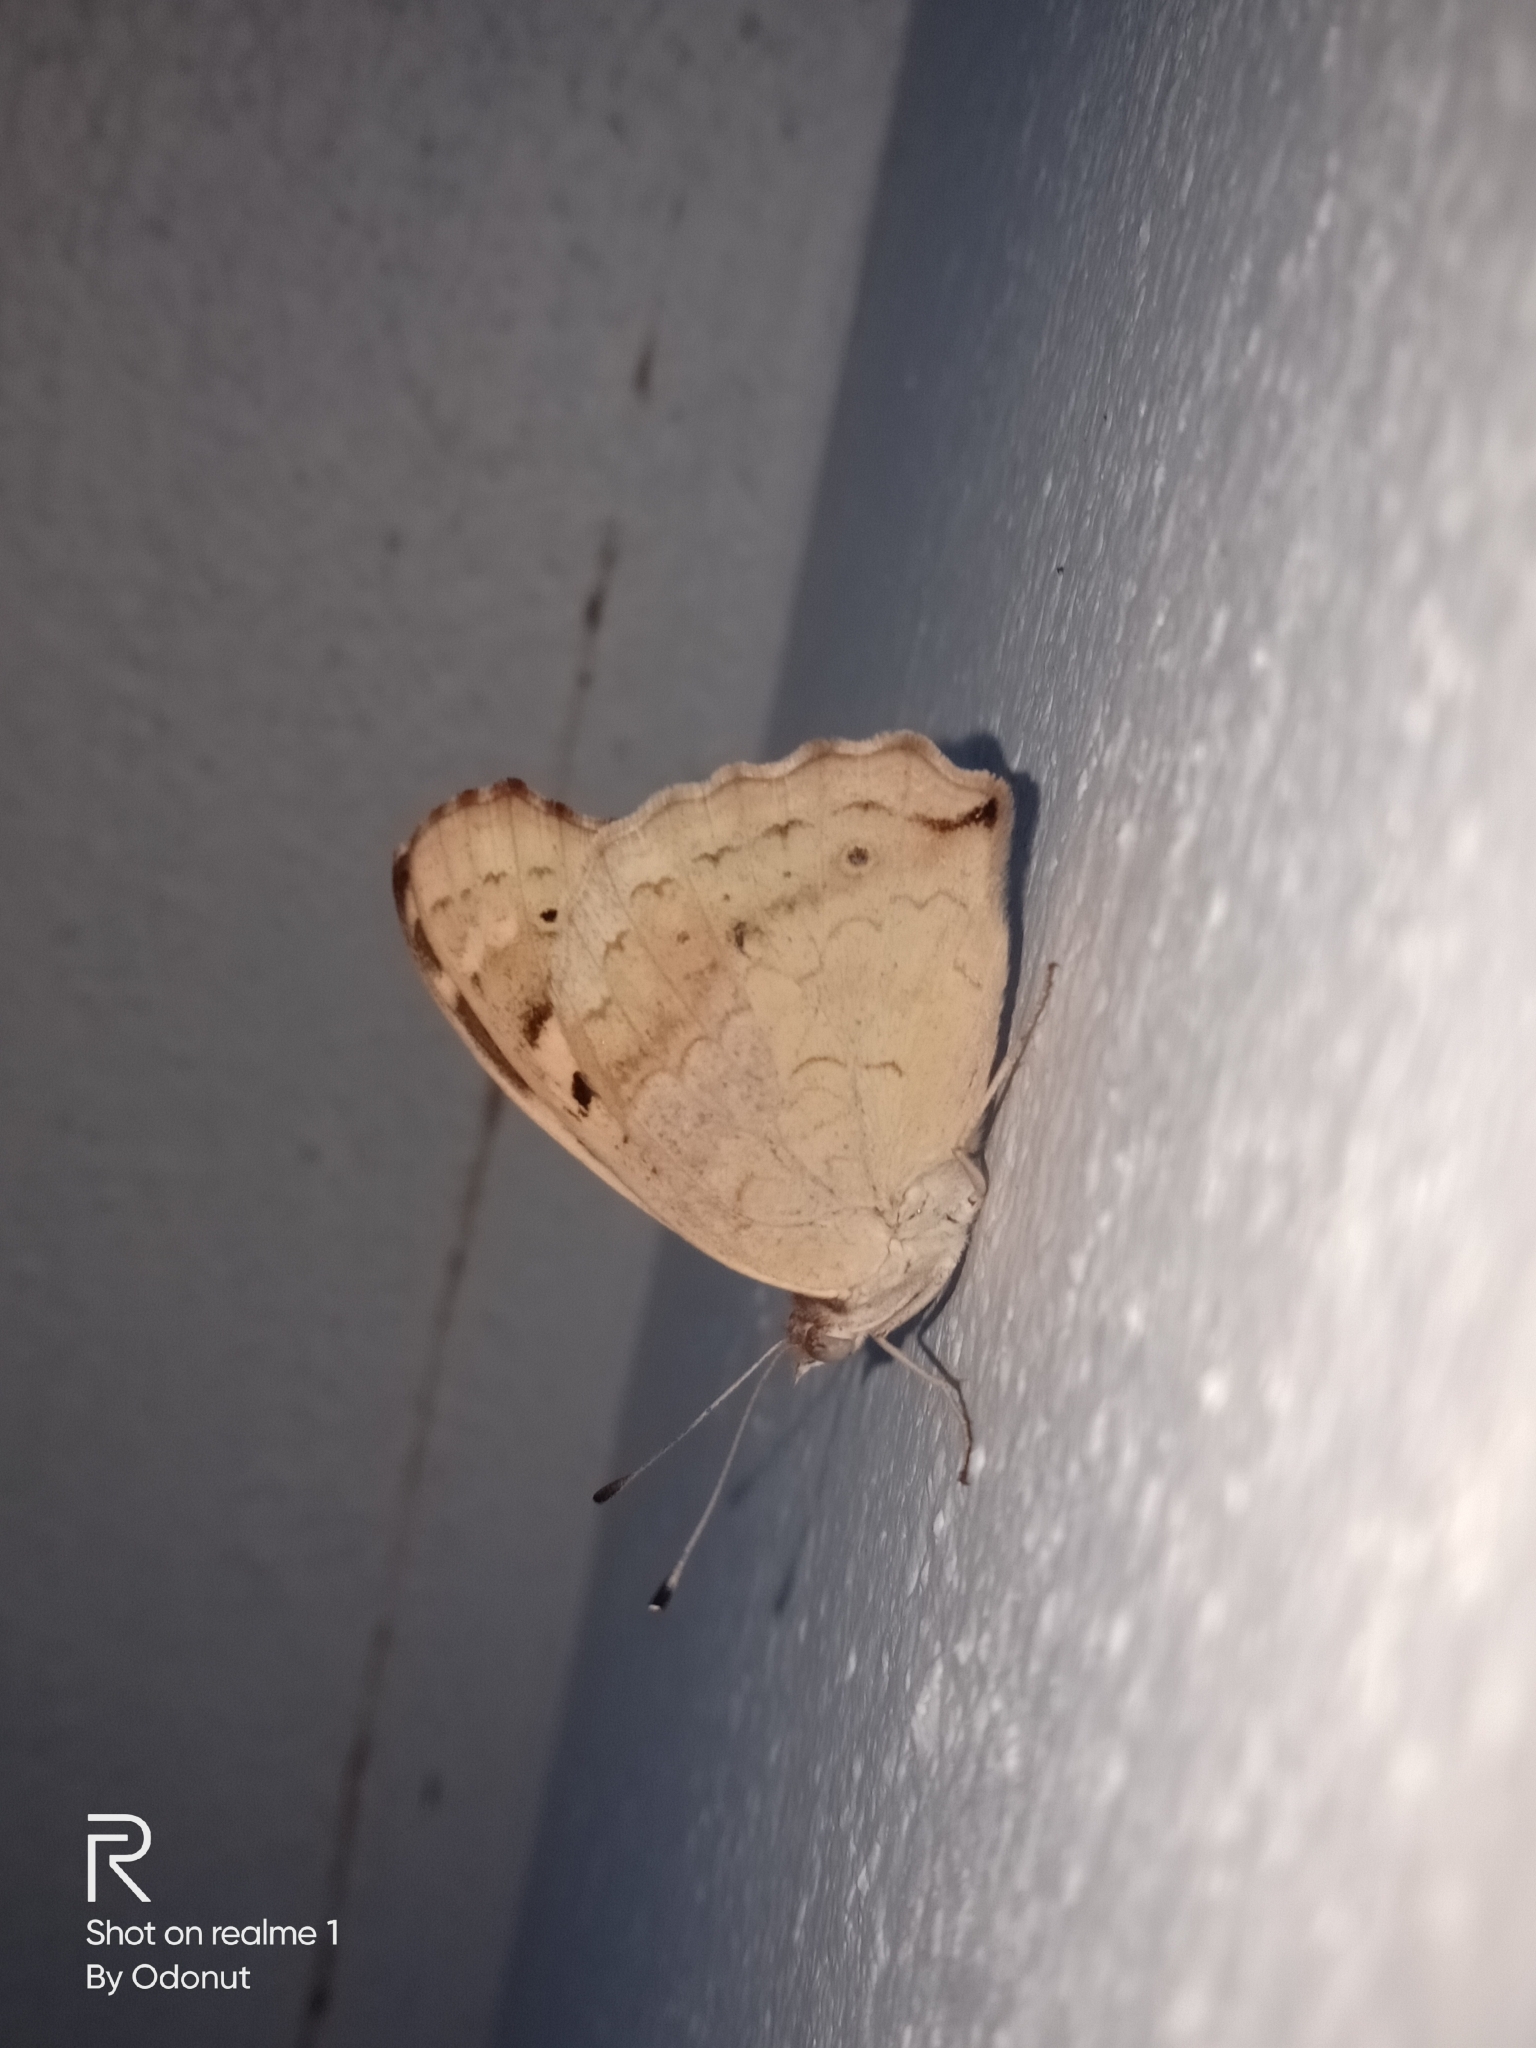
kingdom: Animalia
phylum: Arthropoda
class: Insecta
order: Lepidoptera
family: Nymphalidae
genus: Junonia
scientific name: Junonia hierta
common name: Yellow pansy
